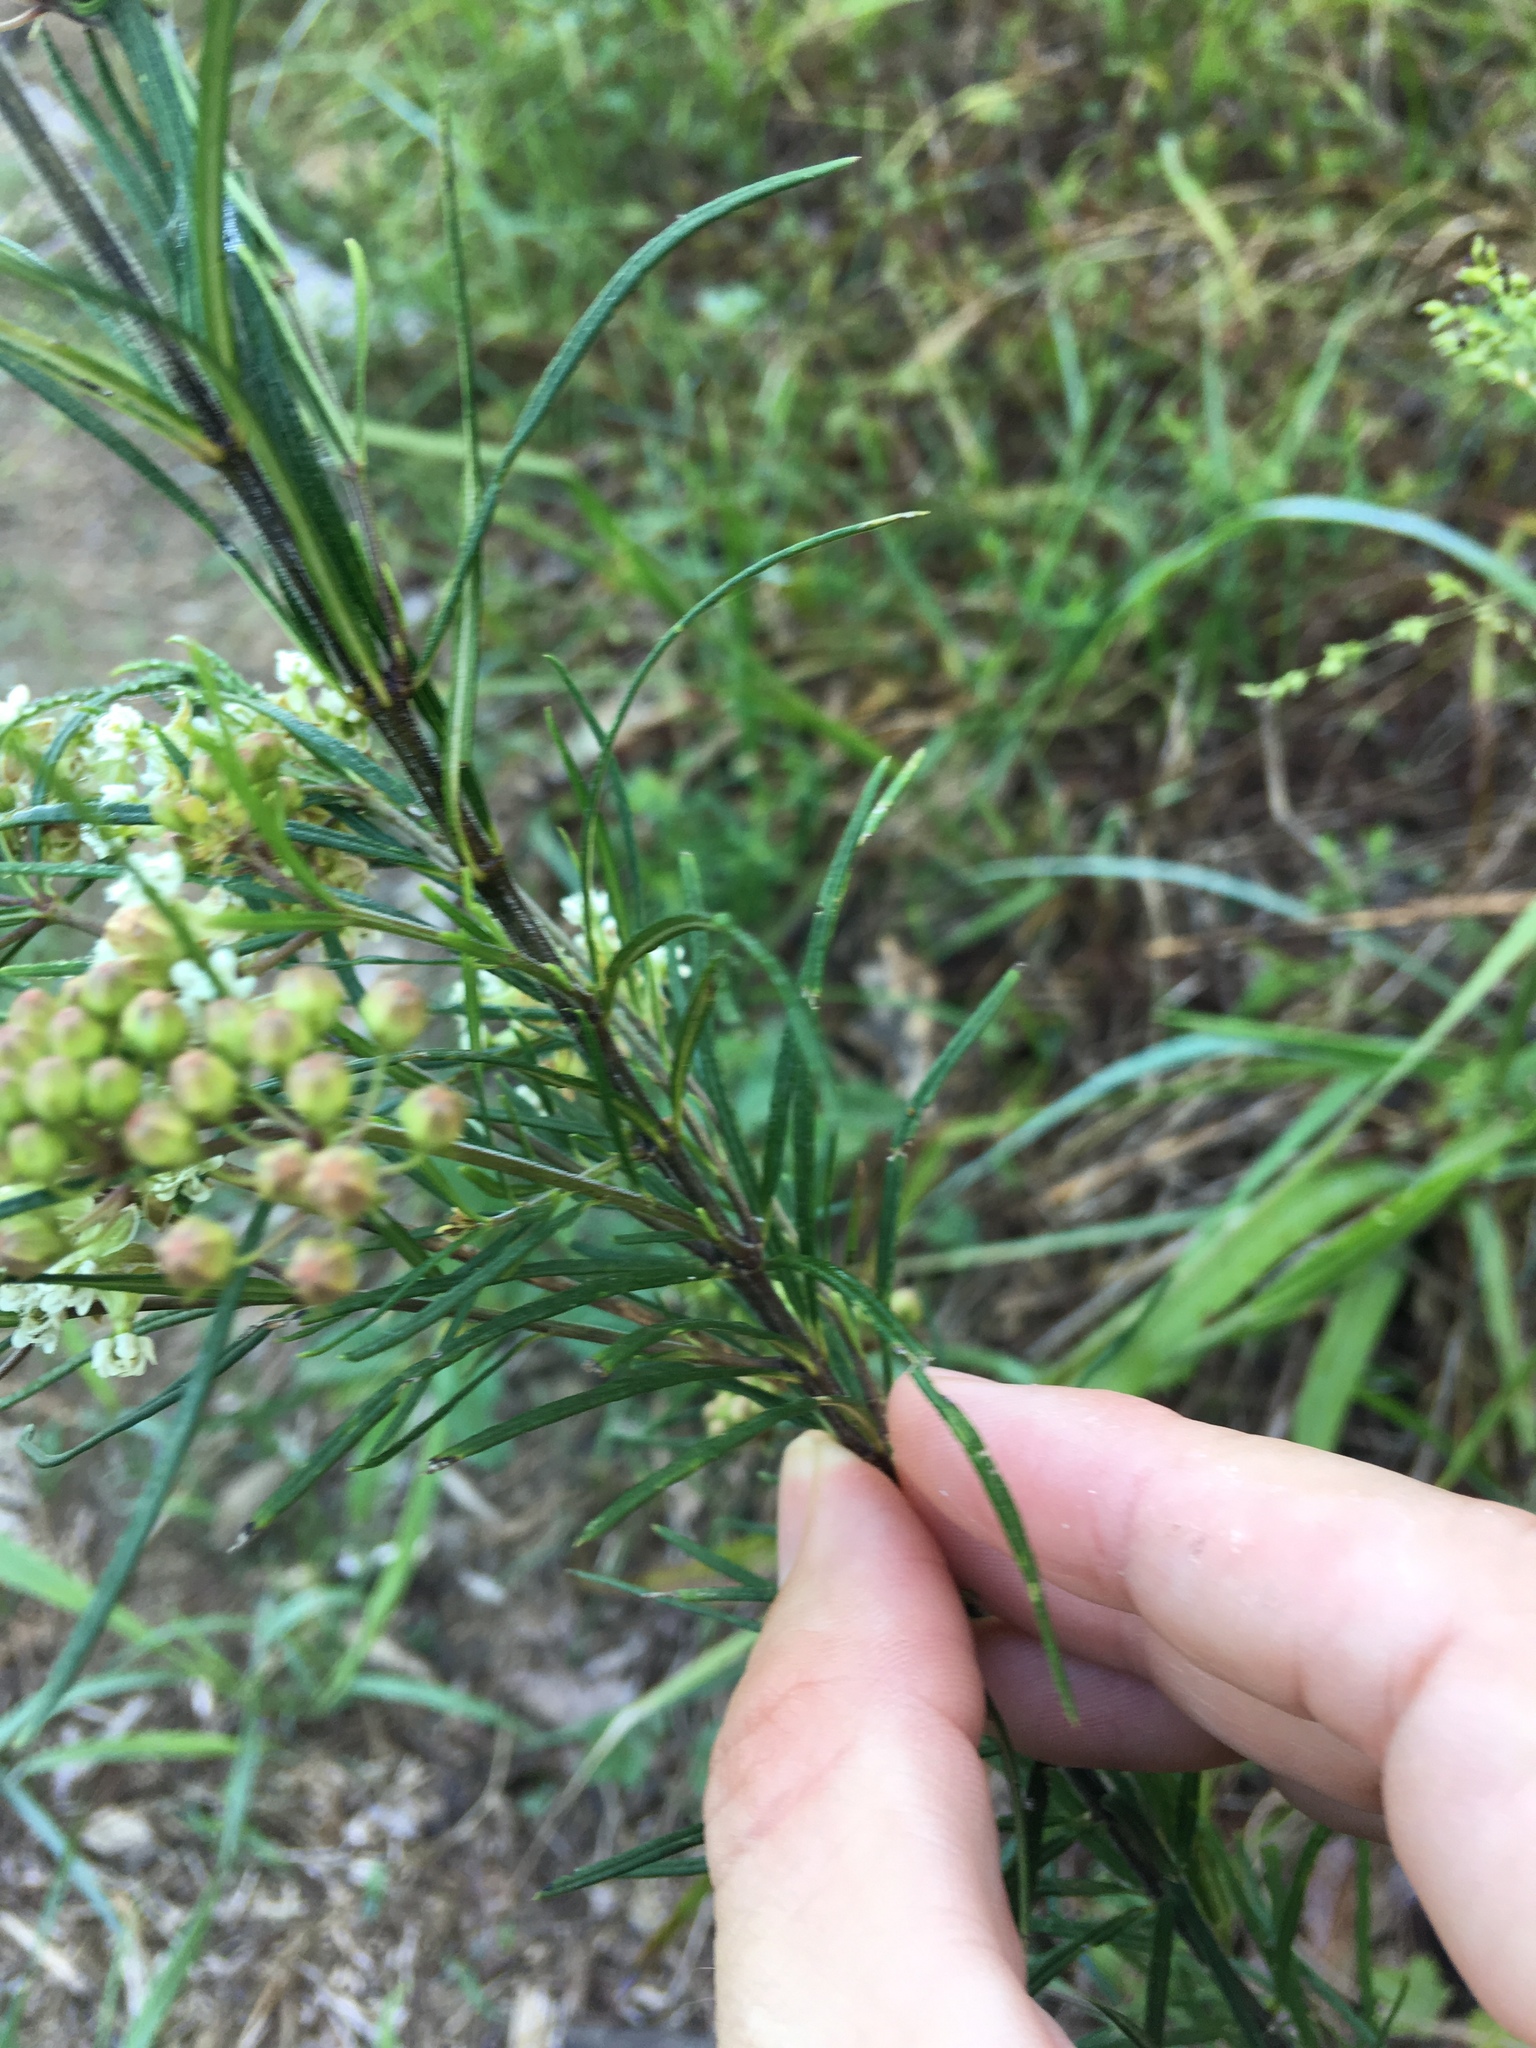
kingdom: Plantae
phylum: Tracheophyta
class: Magnoliopsida
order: Gentianales
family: Apocynaceae
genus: Asclepias
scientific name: Asclepias verticillata
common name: Eastern whorled milkweed
